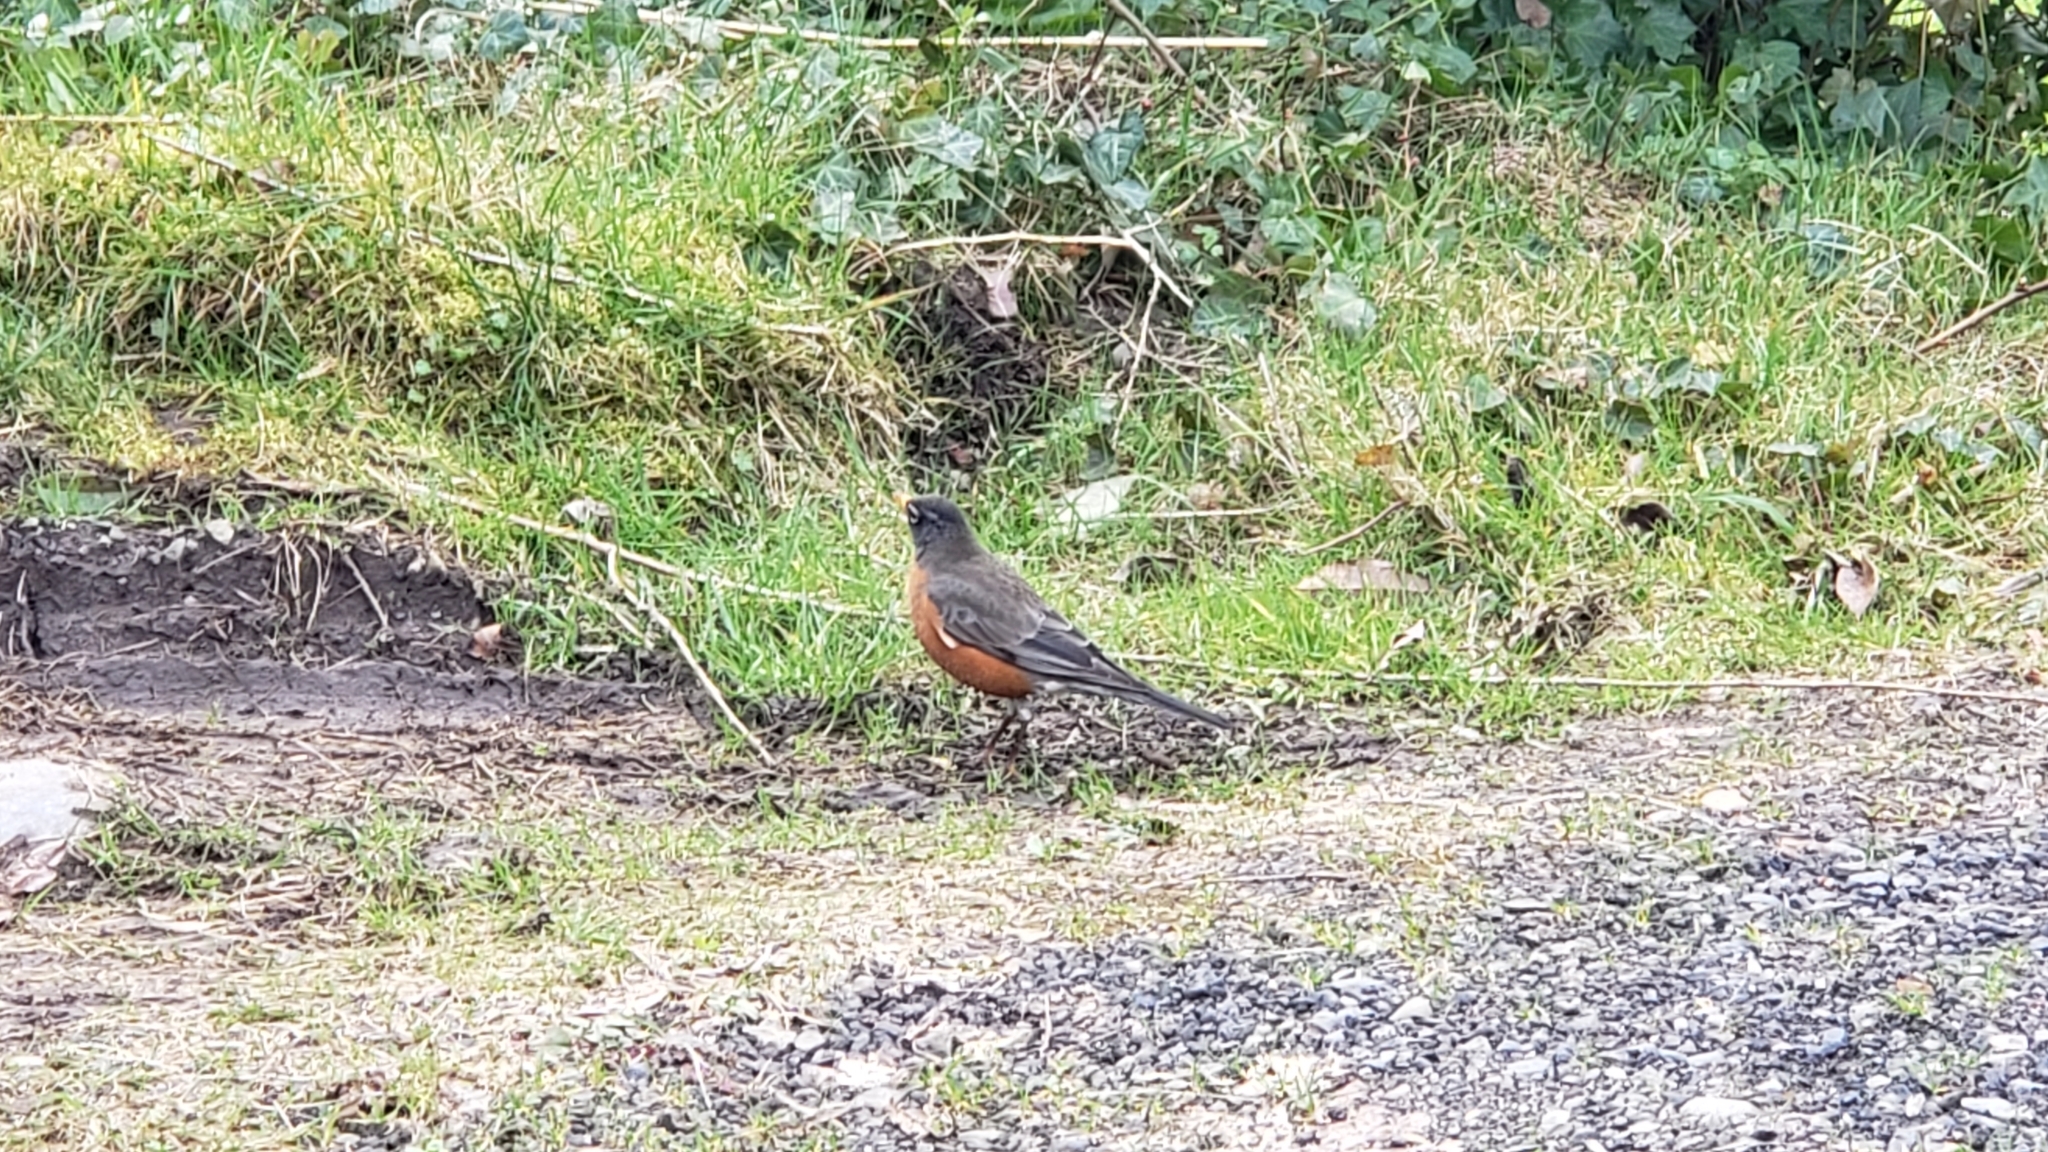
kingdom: Animalia
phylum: Chordata
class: Aves
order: Passeriformes
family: Turdidae
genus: Turdus
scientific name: Turdus migratorius
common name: American robin
